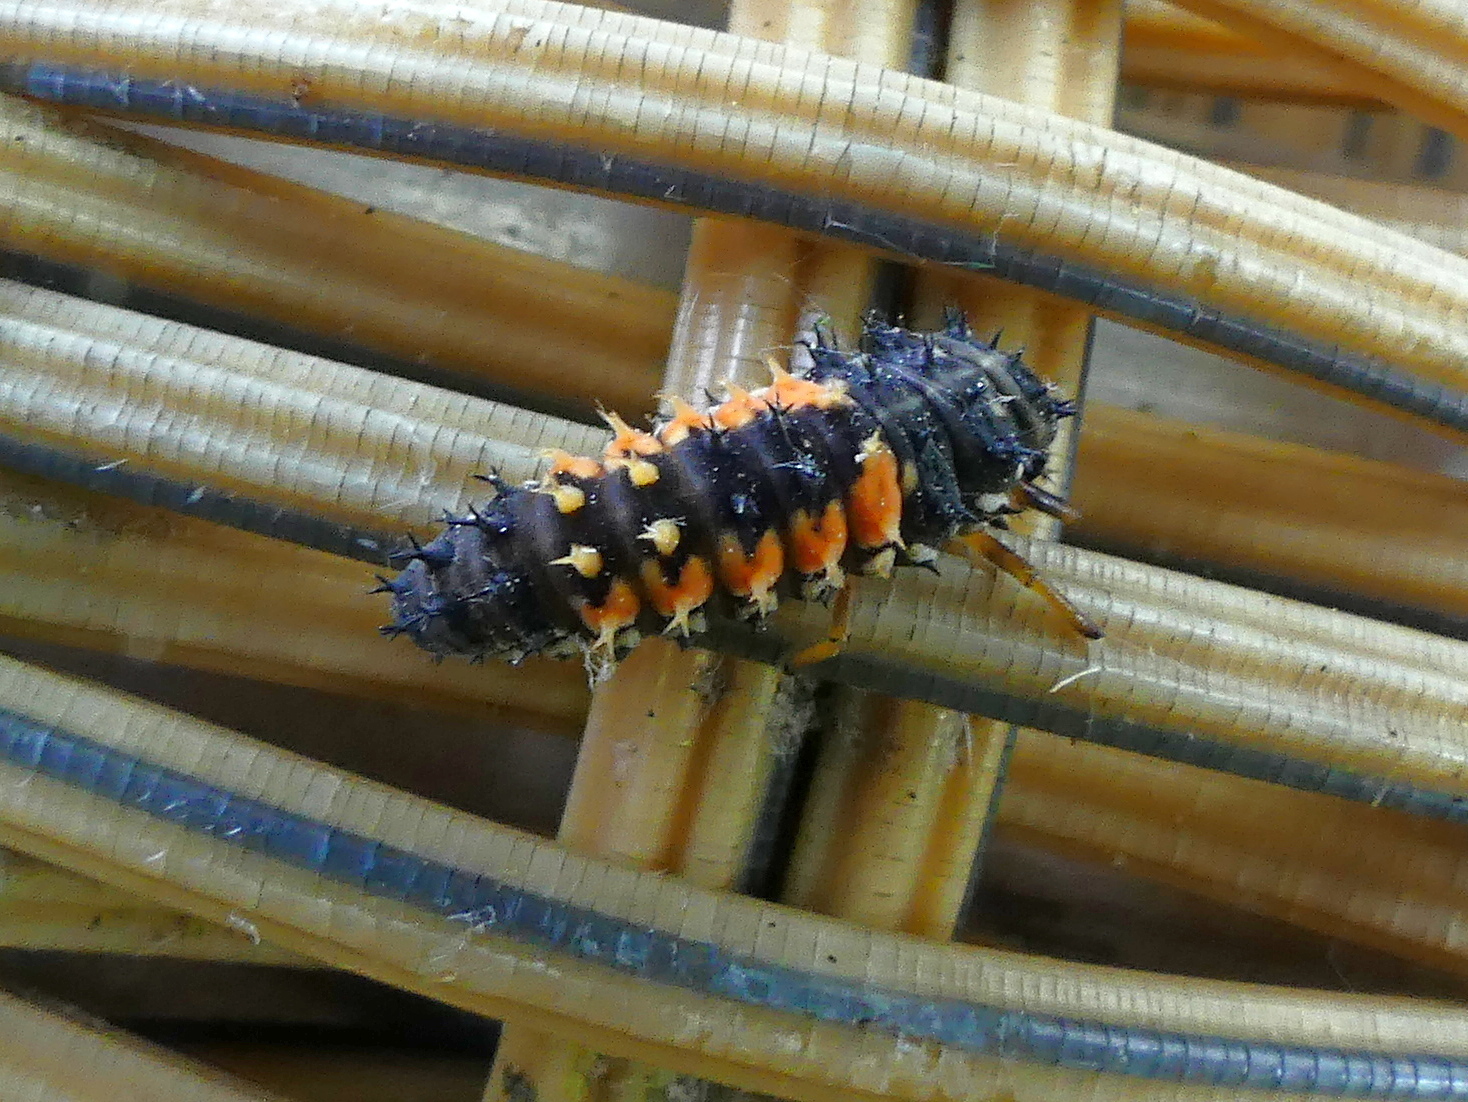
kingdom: Animalia
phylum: Arthropoda
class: Insecta
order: Coleoptera
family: Coccinellidae
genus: Harmonia
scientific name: Harmonia axyridis
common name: Harlequin ladybird
